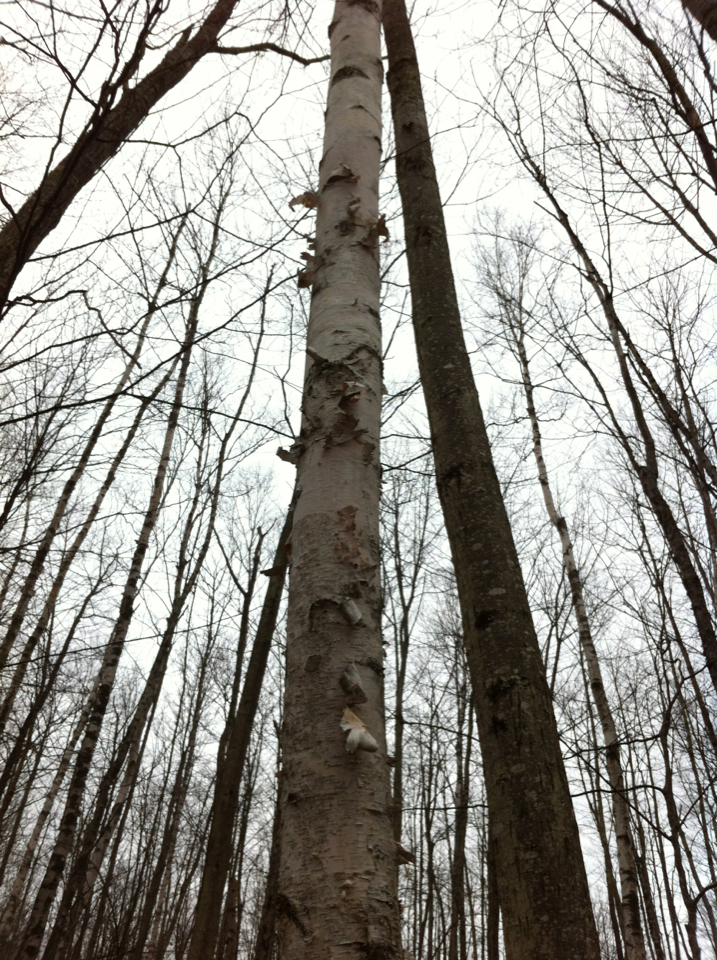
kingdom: Plantae
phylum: Tracheophyta
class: Magnoliopsida
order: Fagales
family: Betulaceae
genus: Betula
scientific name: Betula papyrifera
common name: Paper birch
